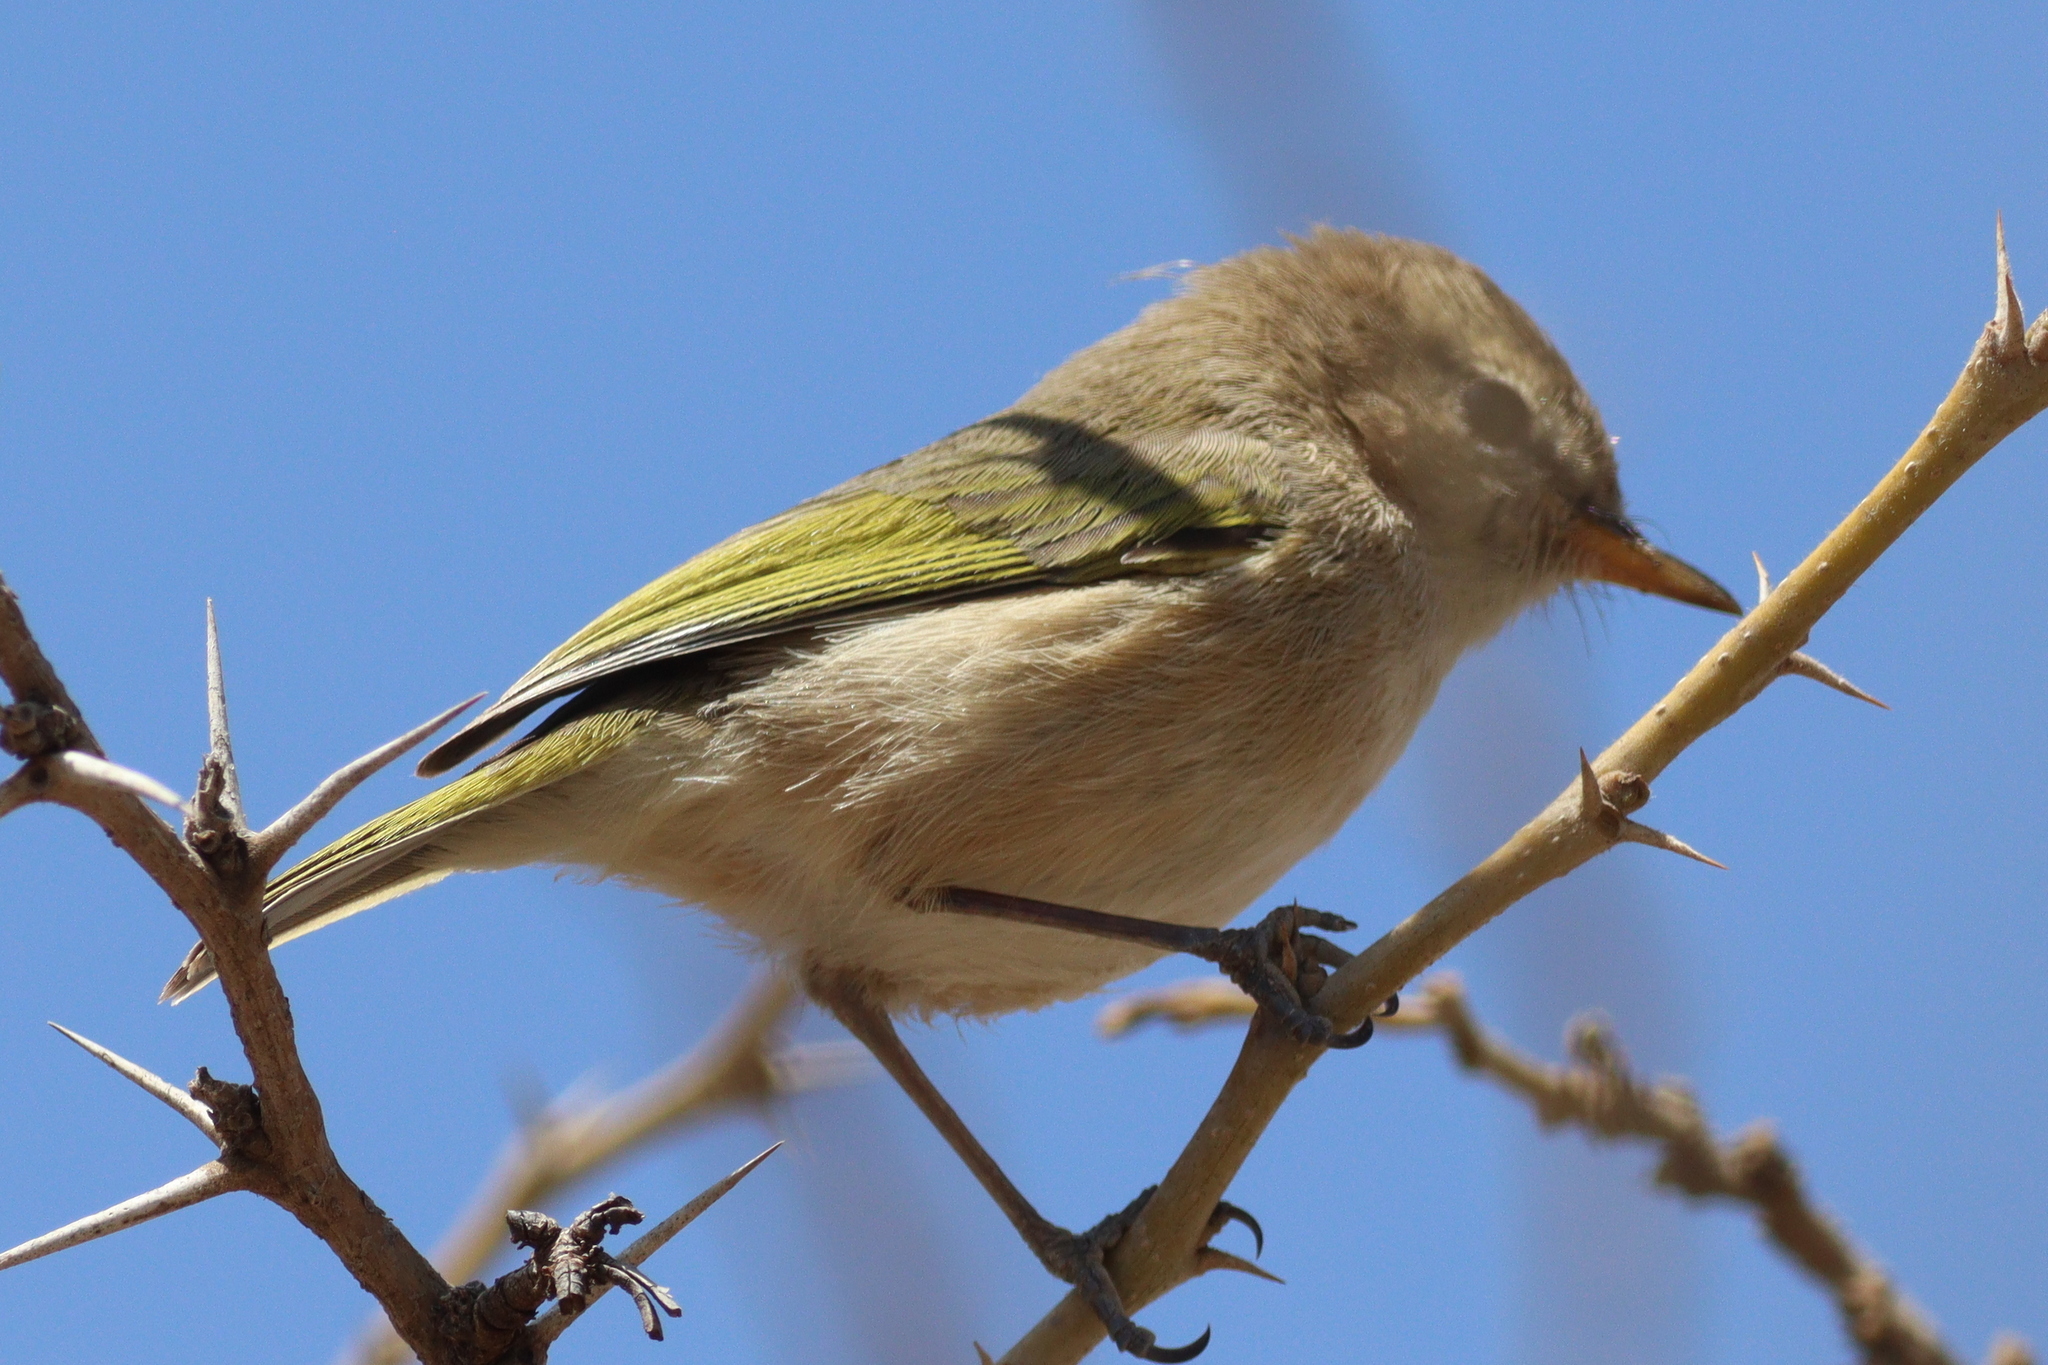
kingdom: Animalia
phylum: Chordata
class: Aves
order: Passeriformes
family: Phylloscopidae
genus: Phylloscopus
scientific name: Phylloscopus umbrovirens
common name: Brown woodland warbler
